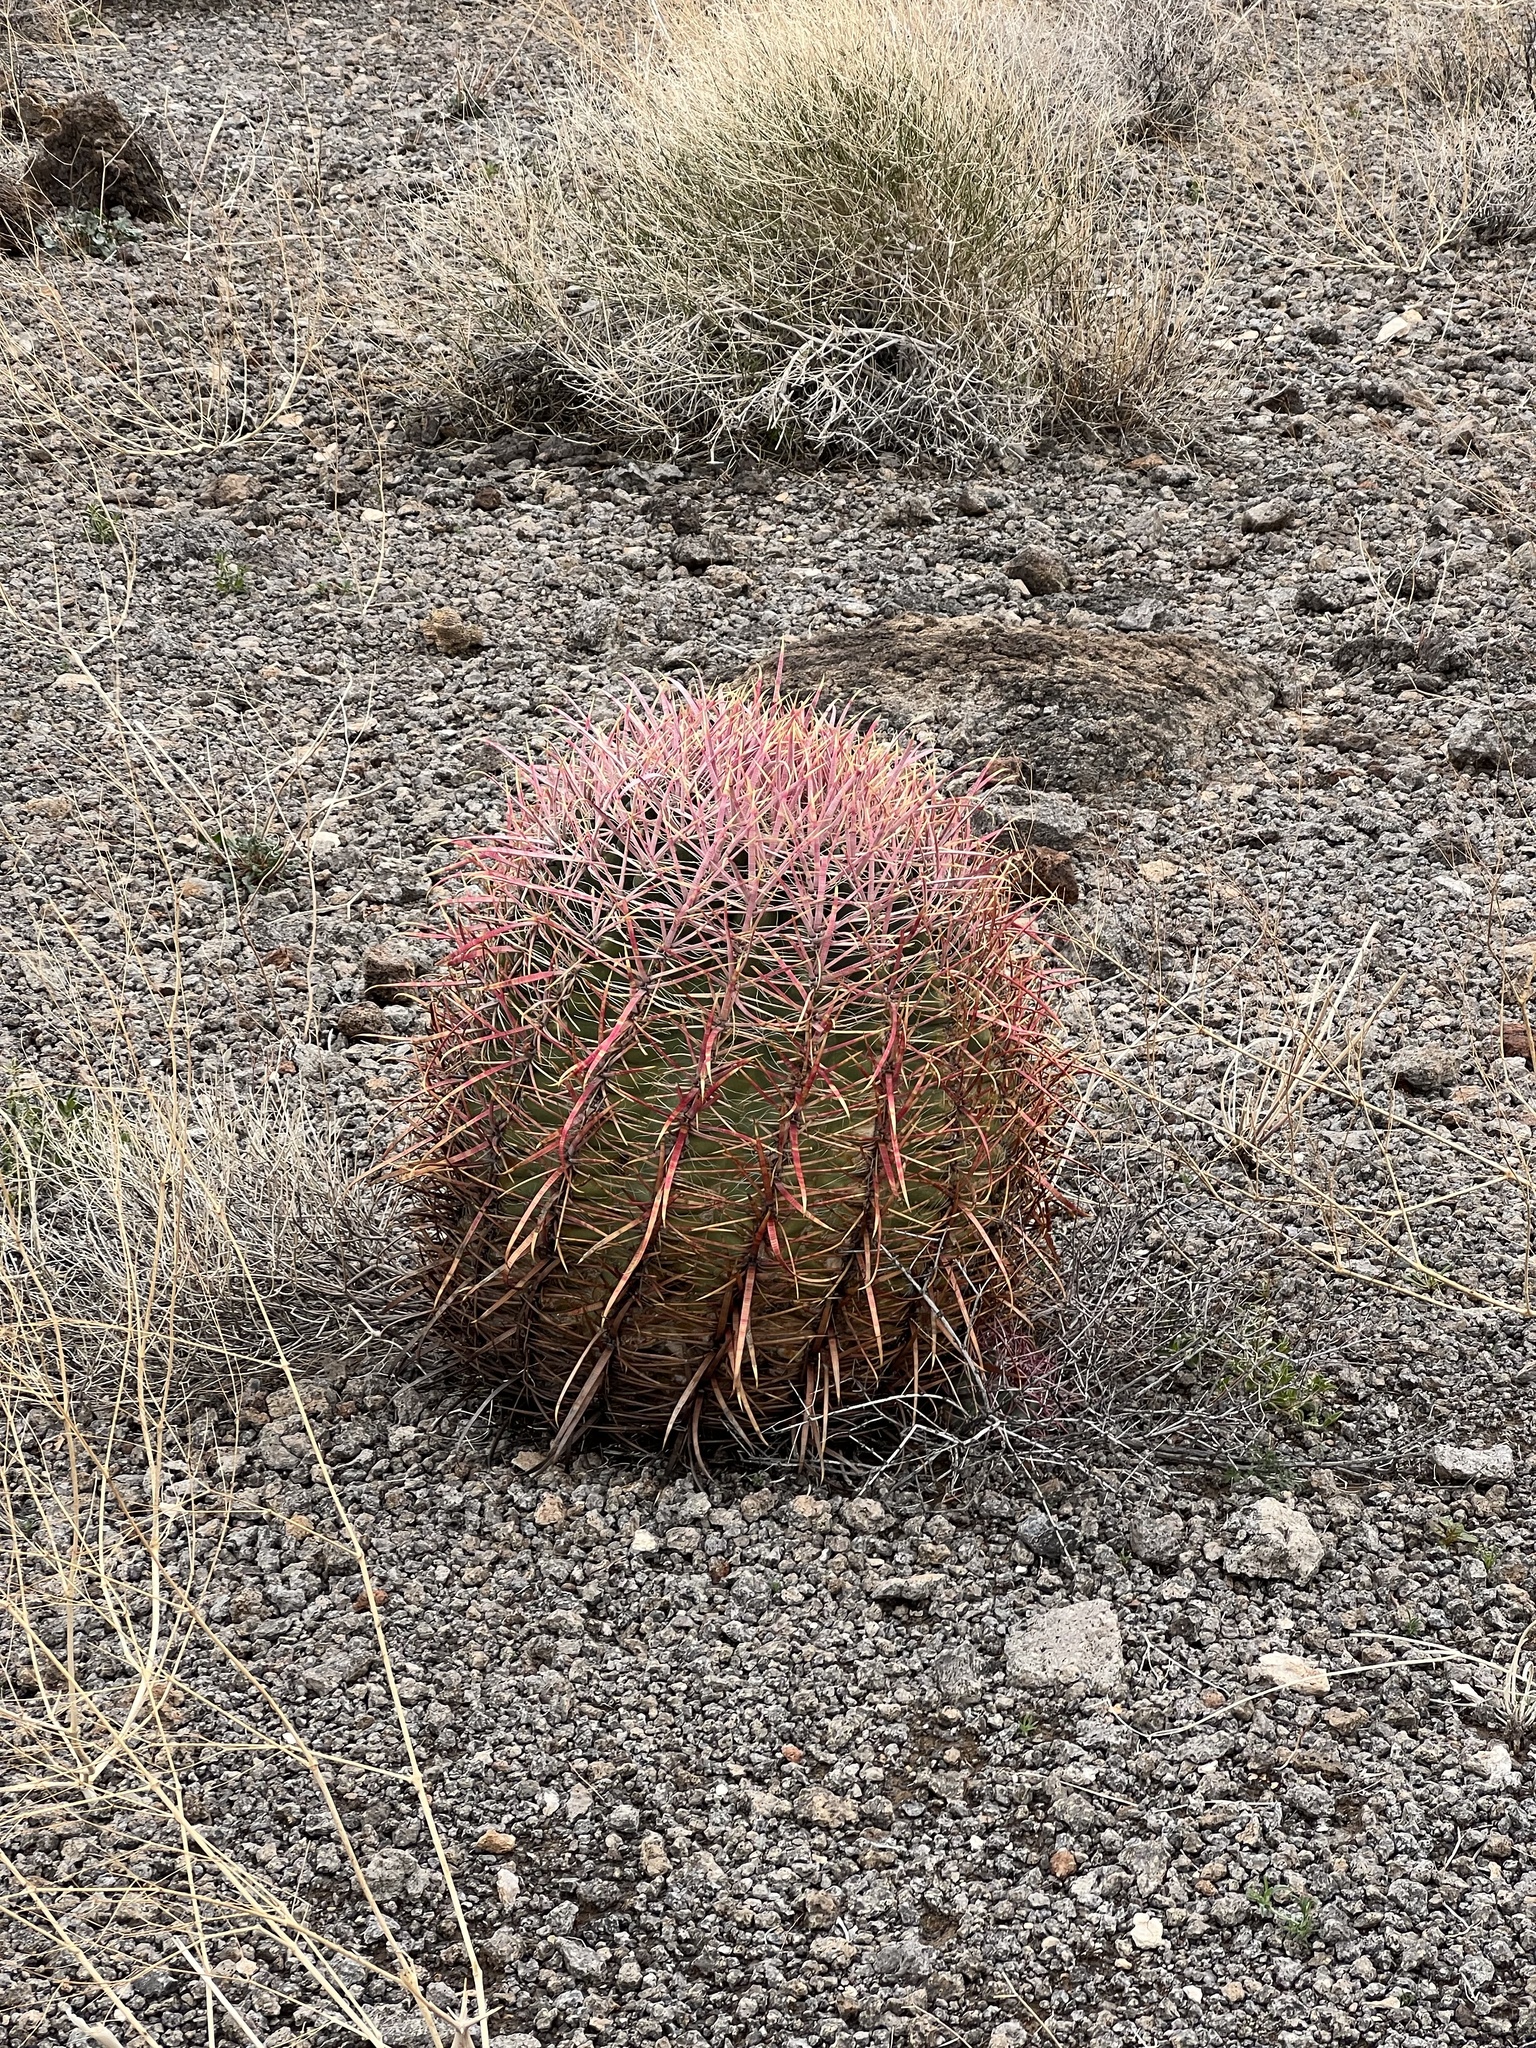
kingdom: Plantae
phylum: Tracheophyta
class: Magnoliopsida
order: Caryophyllales
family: Cactaceae
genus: Ferocactus
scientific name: Ferocactus cylindraceus
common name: California barrel cactus
